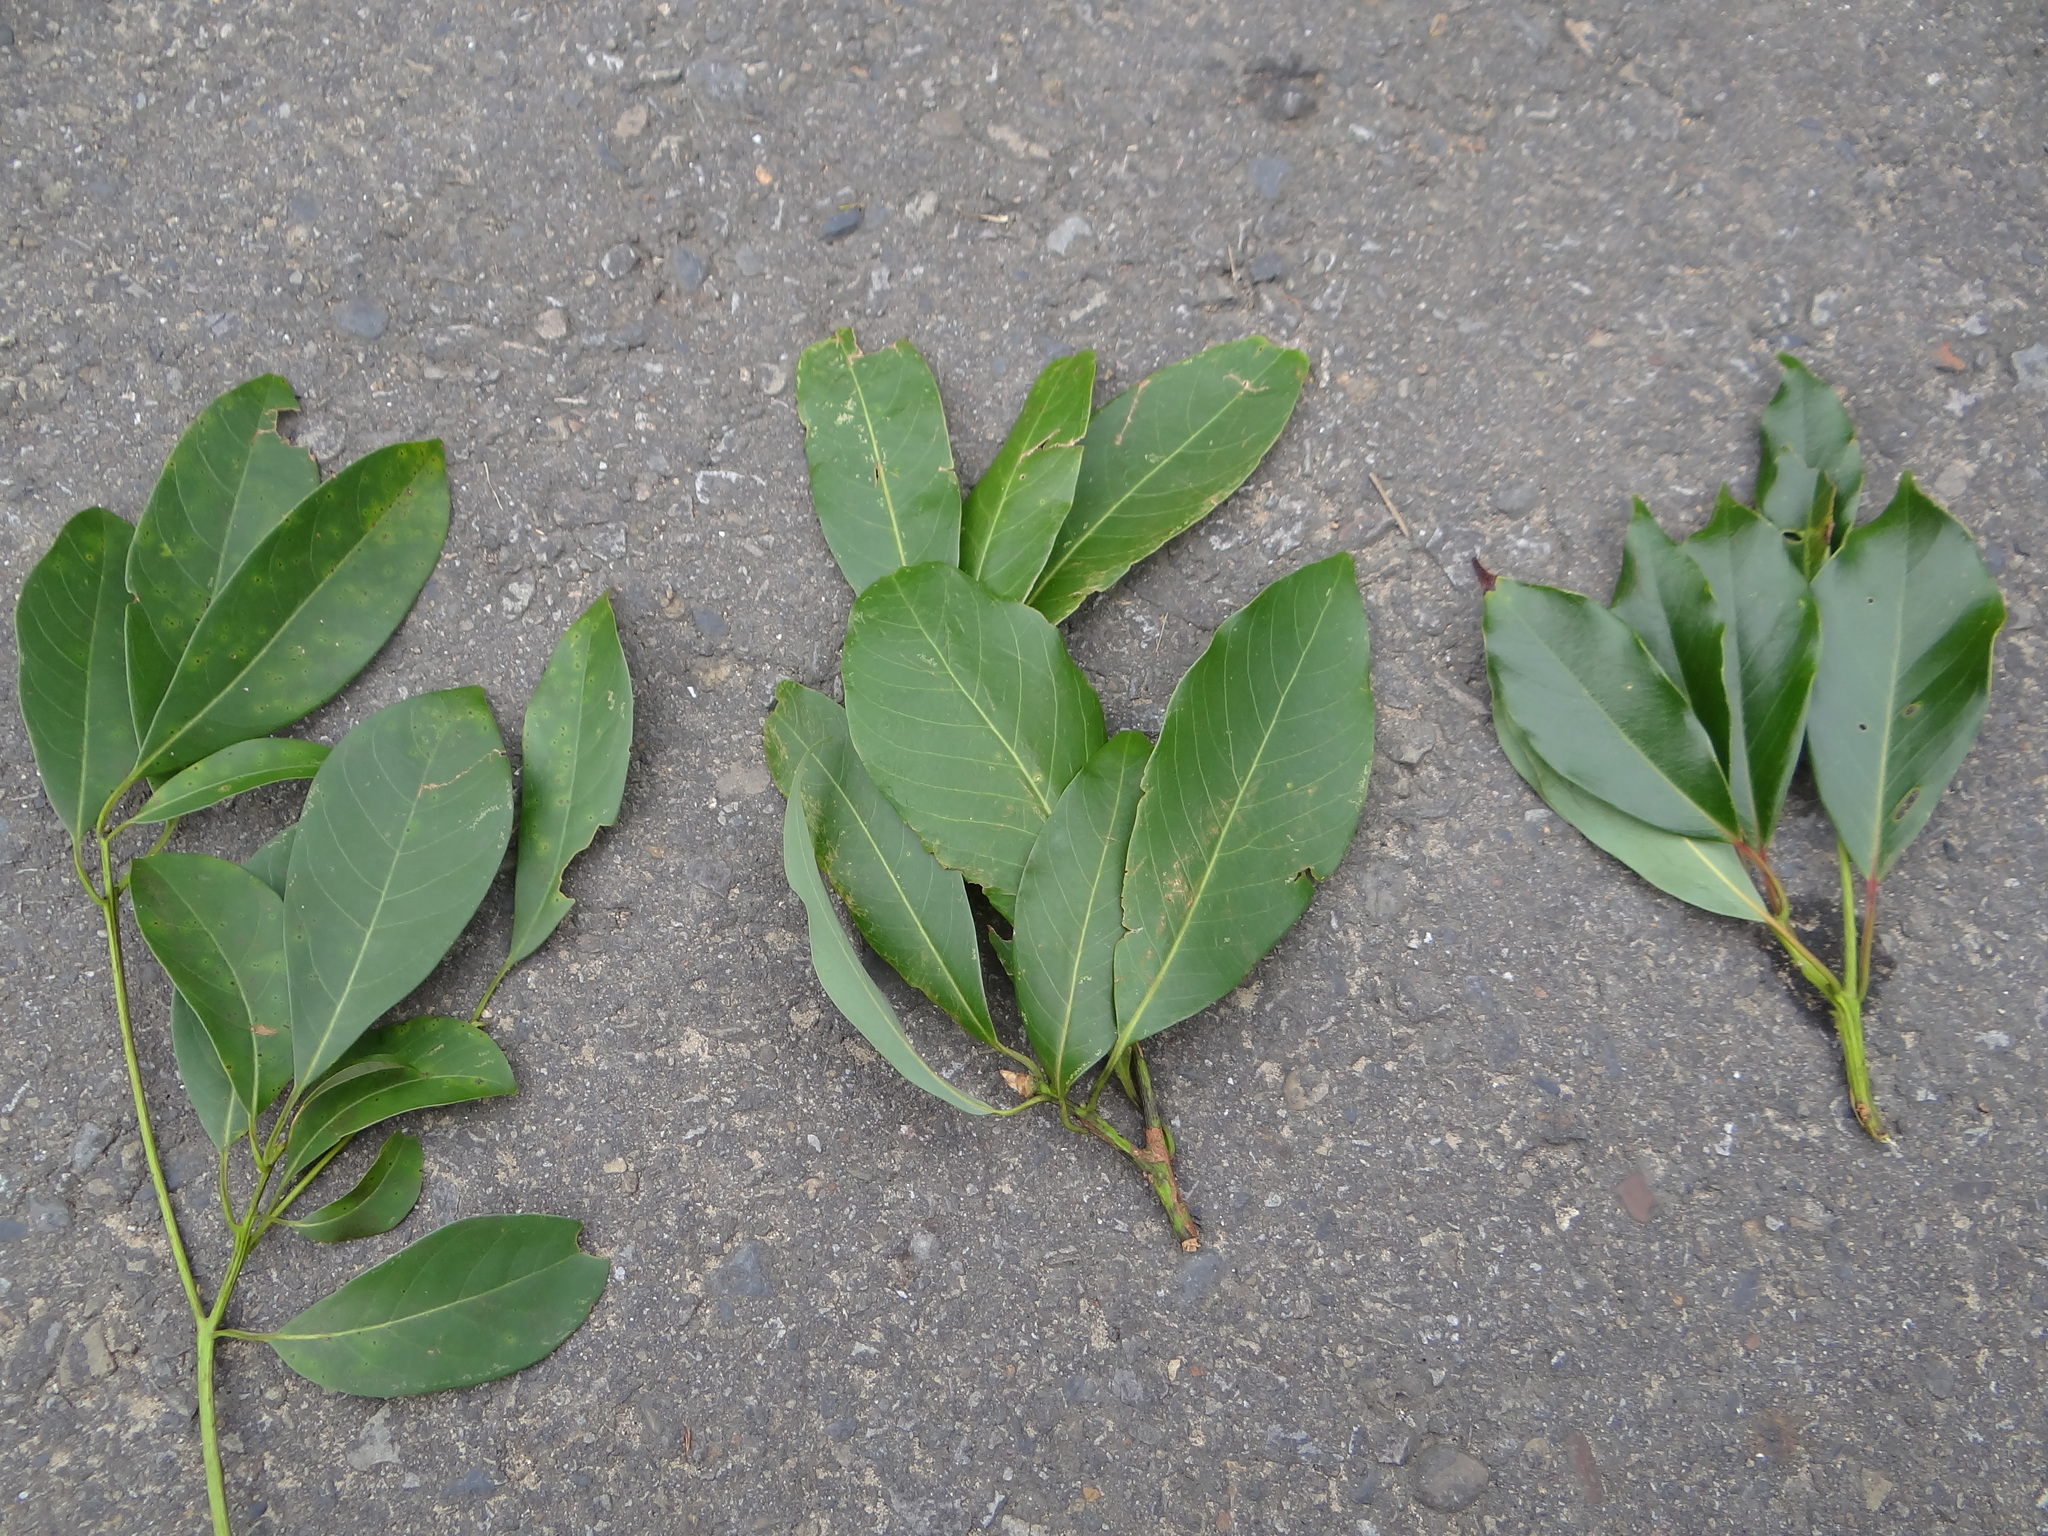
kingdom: Plantae
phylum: Tracheophyta
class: Magnoliopsida
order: Laurales
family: Lauraceae
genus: Machilus
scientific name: Machilus zuihoensis
